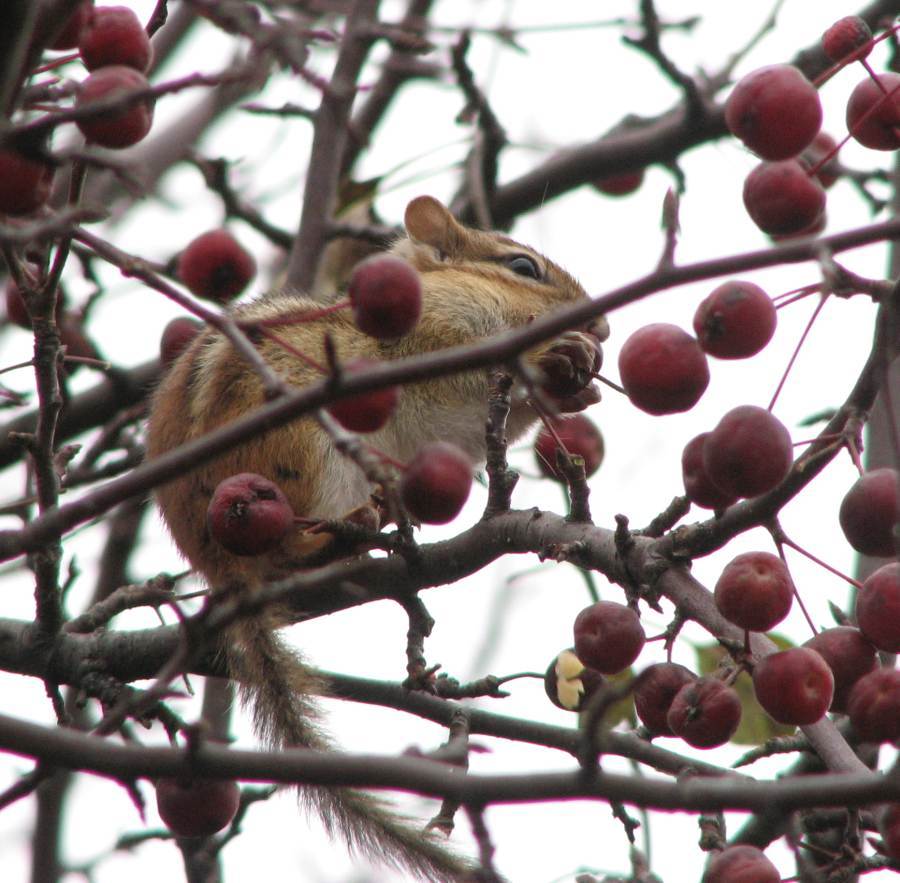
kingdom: Animalia
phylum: Chordata
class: Mammalia
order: Rodentia
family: Sciuridae
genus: Tamias
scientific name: Tamias striatus
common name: Eastern chipmunk
